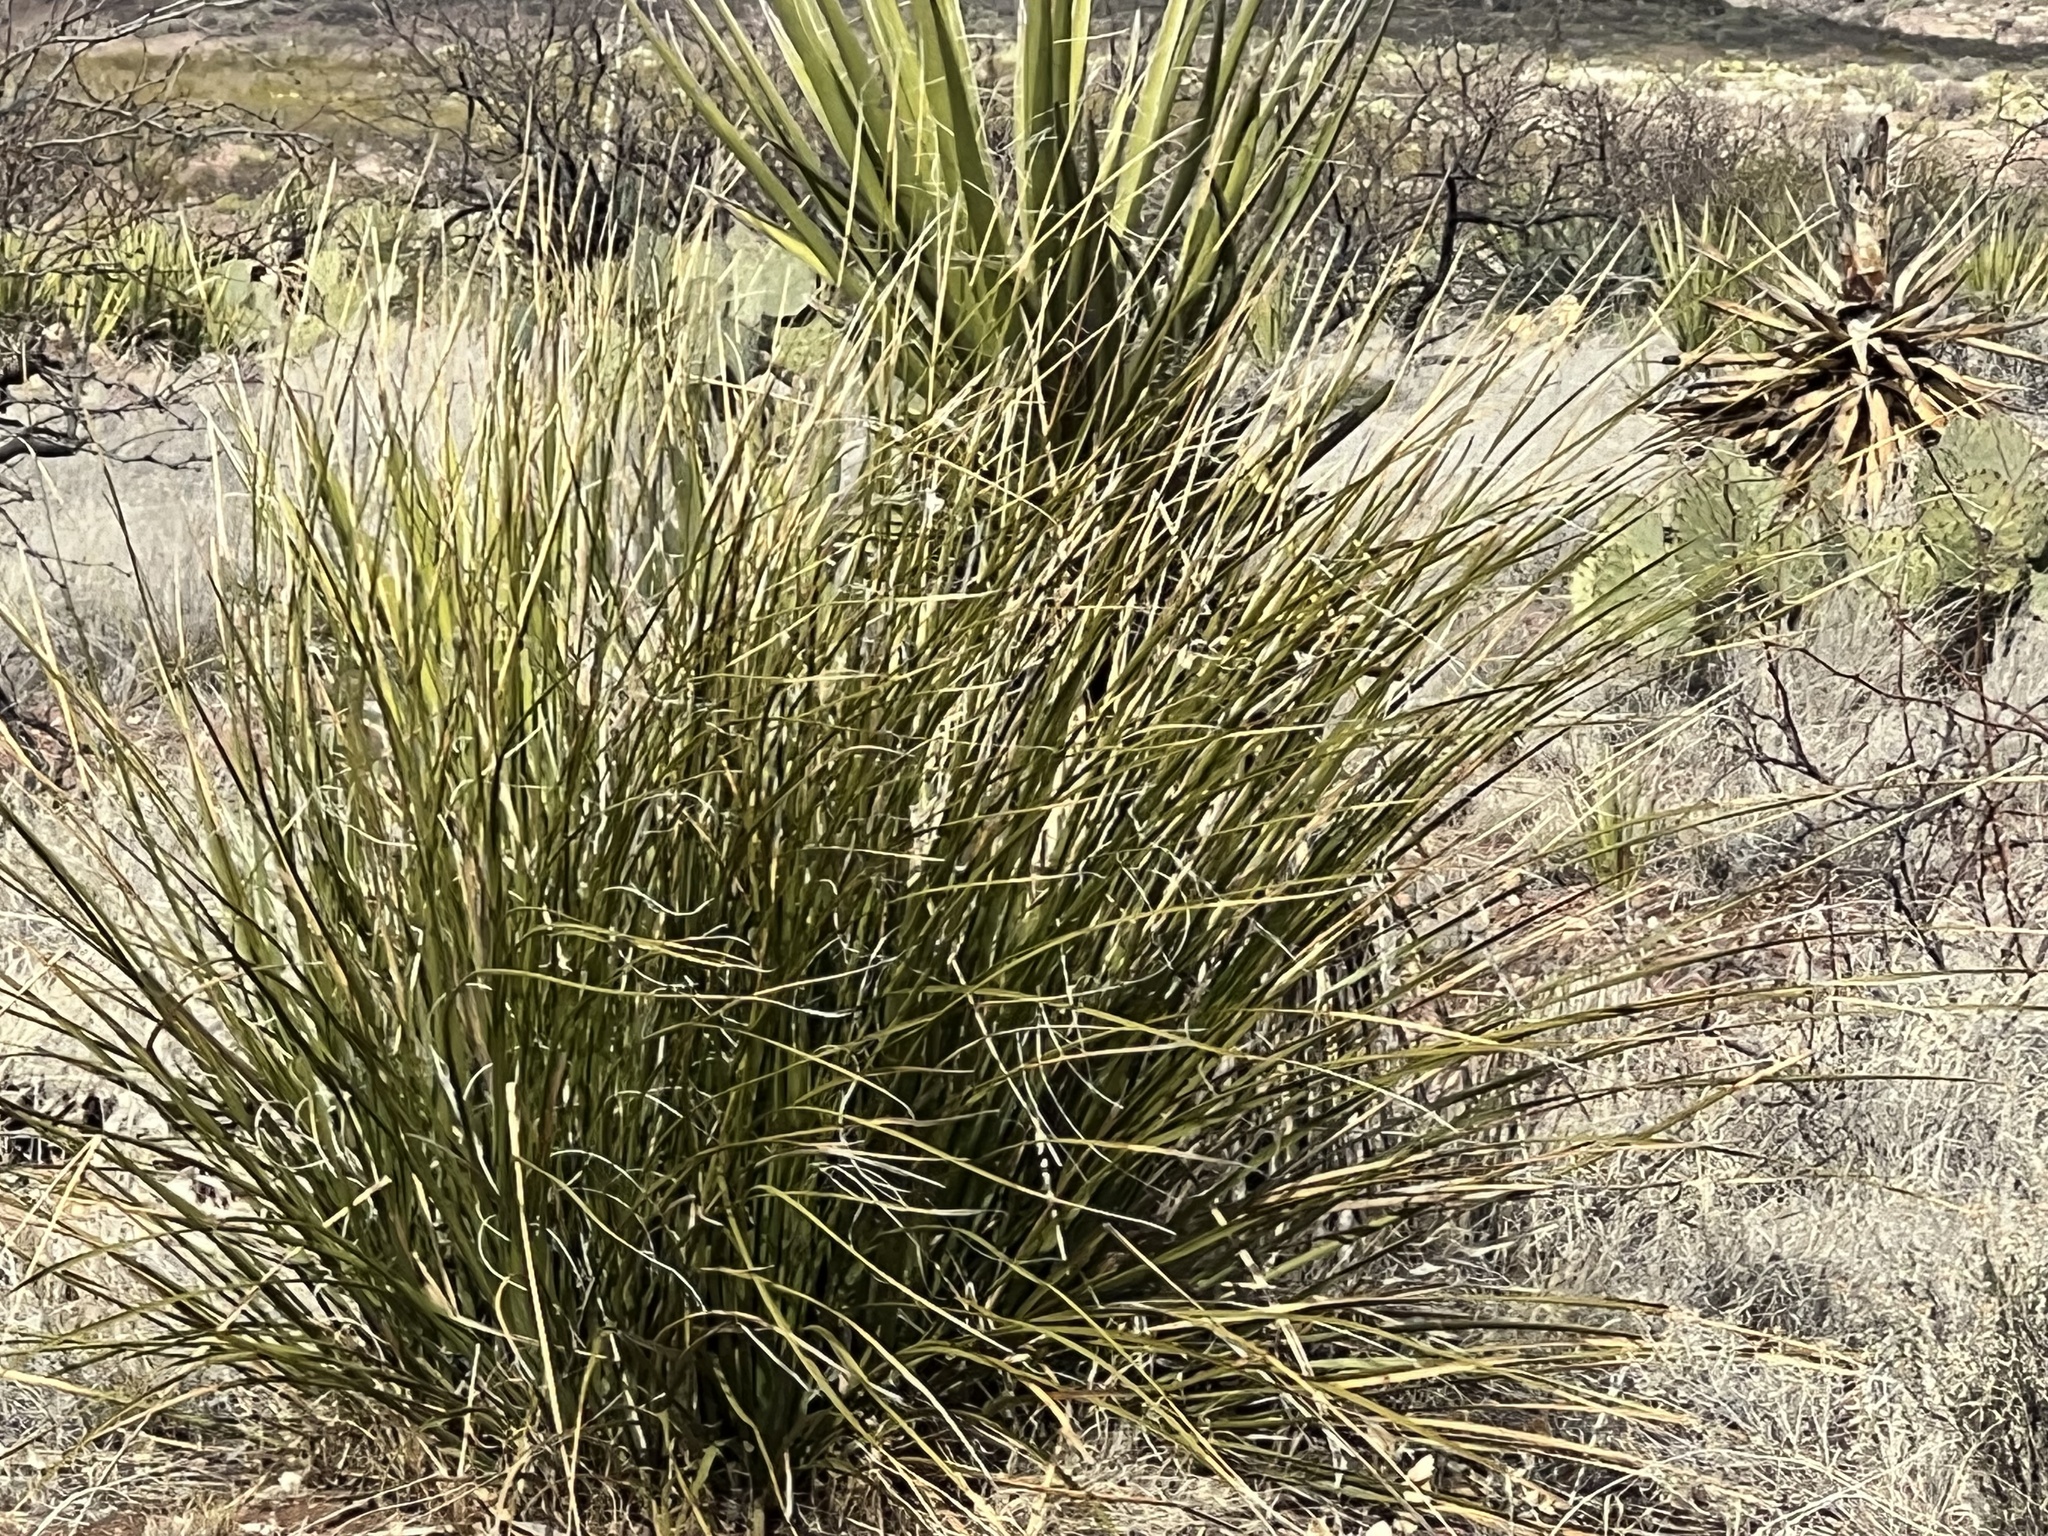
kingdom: Plantae
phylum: Tracheophyta
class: Liliopsida
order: Asparagales
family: Asparagaceae
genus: Nolina
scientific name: Nolina microcarpa
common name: Bear-grass
